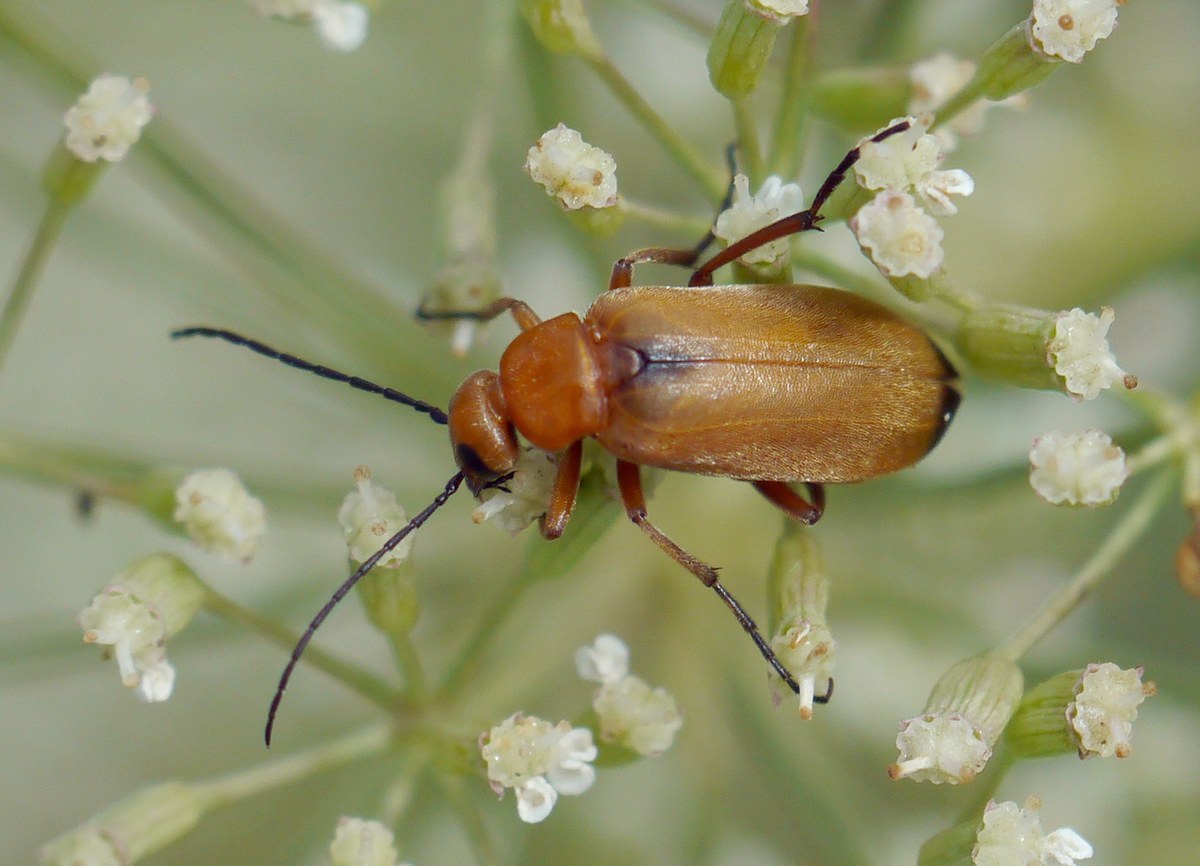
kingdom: Animalia
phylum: Arthropoda
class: Insecta
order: Coleoptera
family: Meloidae
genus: Zonitis
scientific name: Zonitis flava
